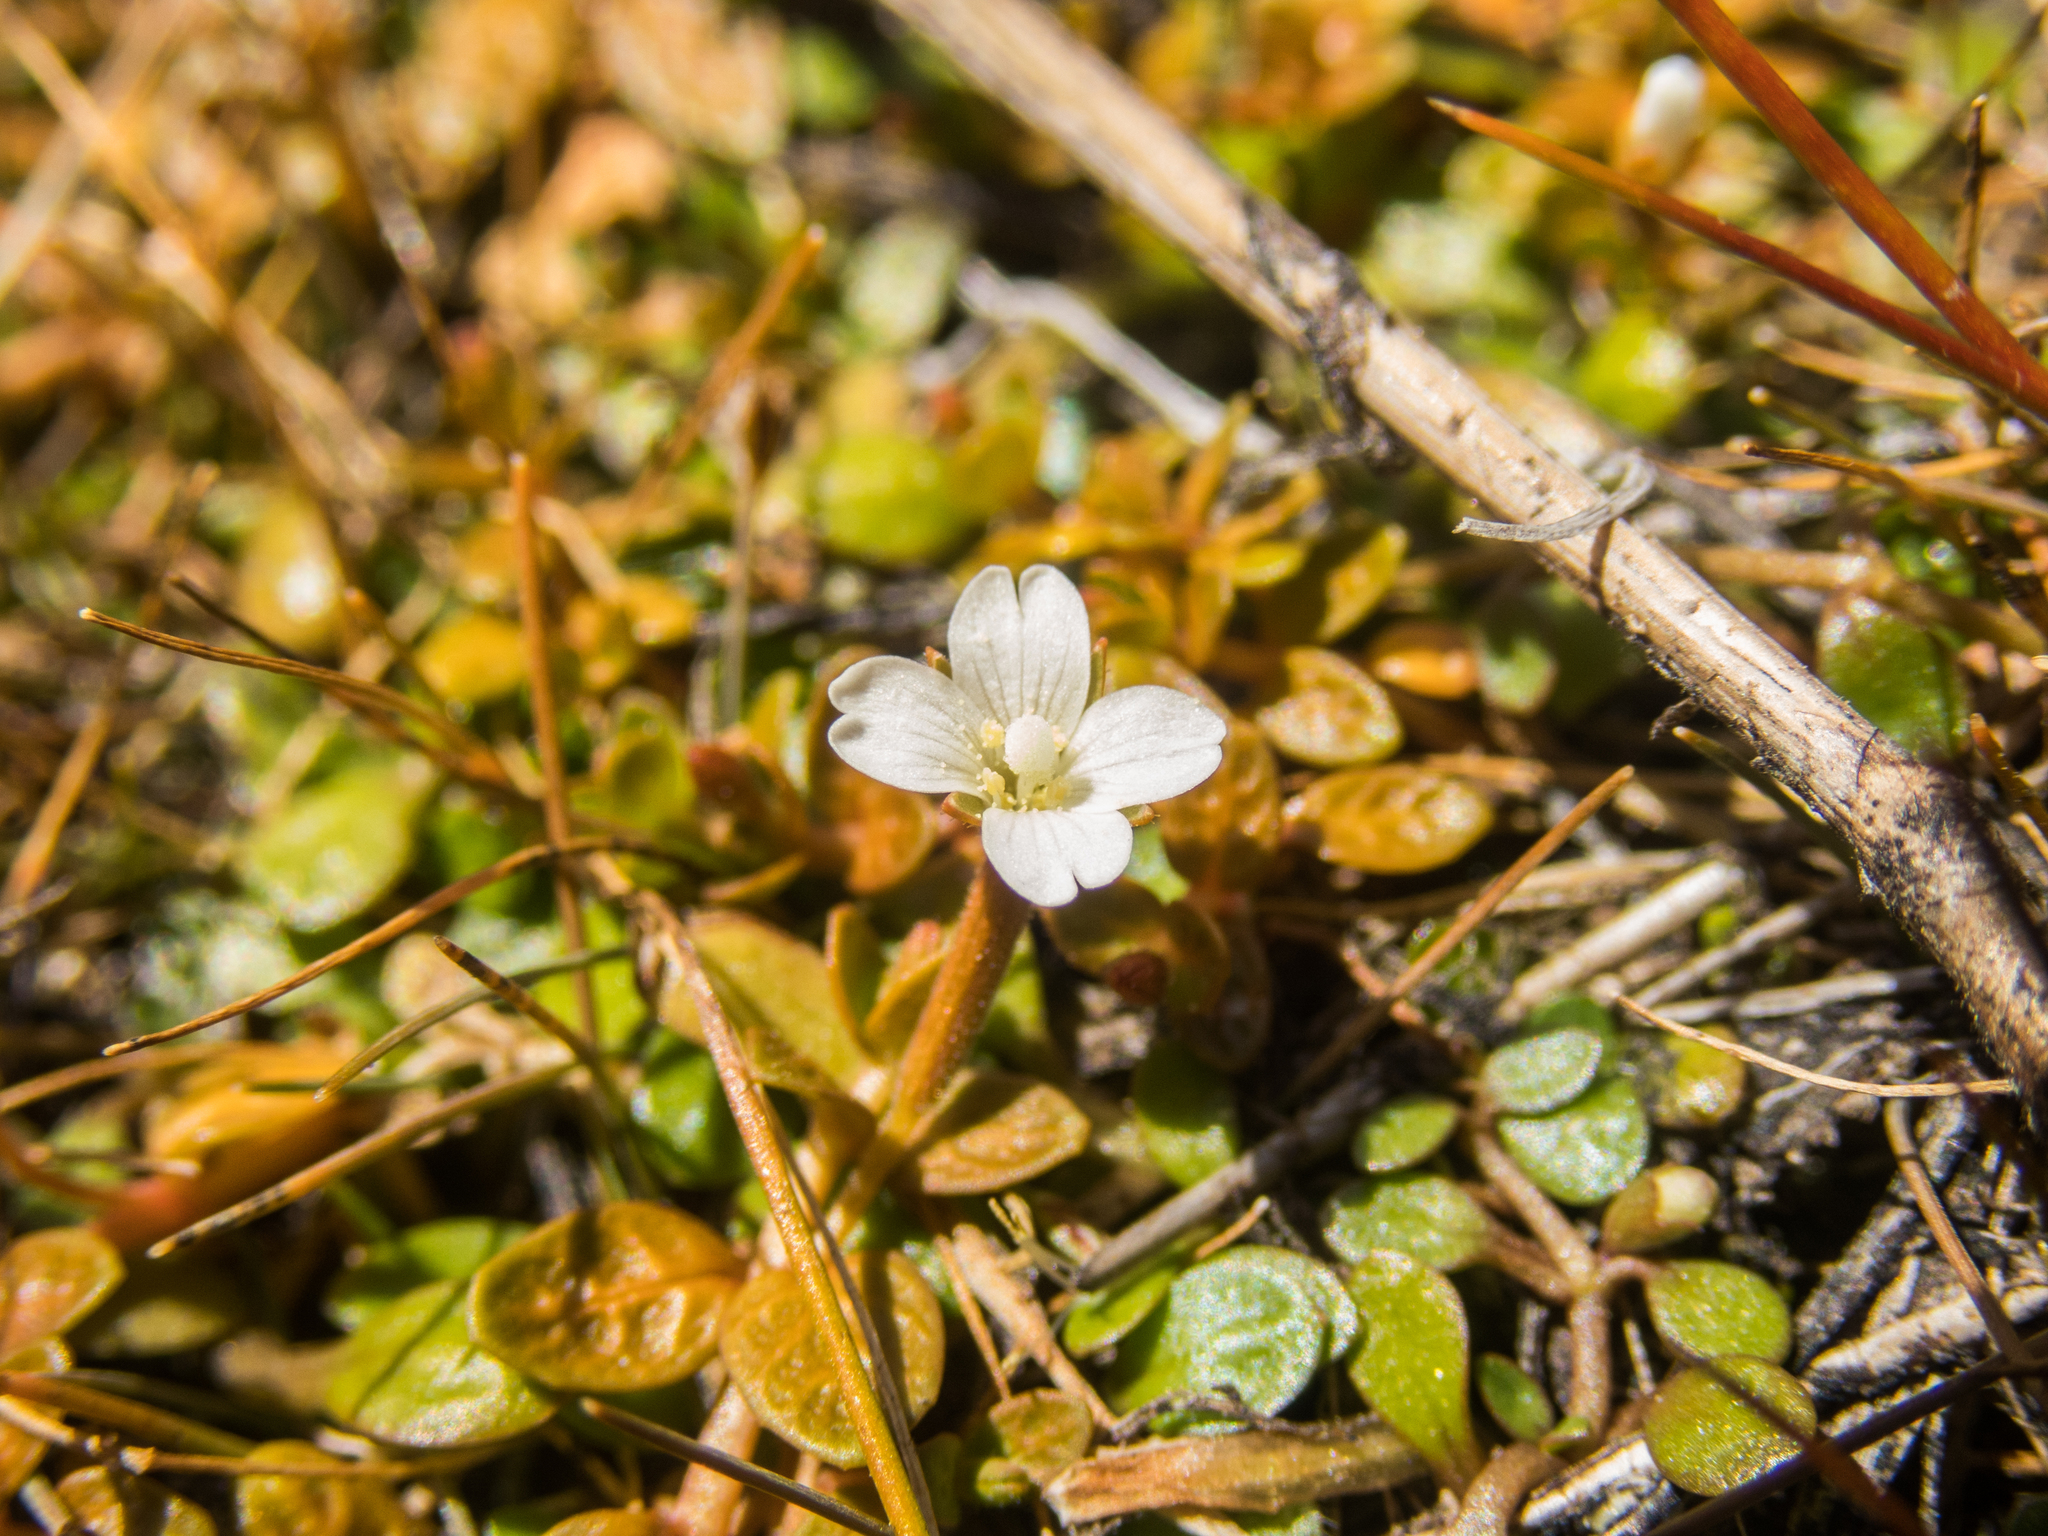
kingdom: Plantae
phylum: Tracheophyta
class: Magnoliopsida
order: Myrtales
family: Onagraceae
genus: Epilobium
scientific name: Epilobium angustum
